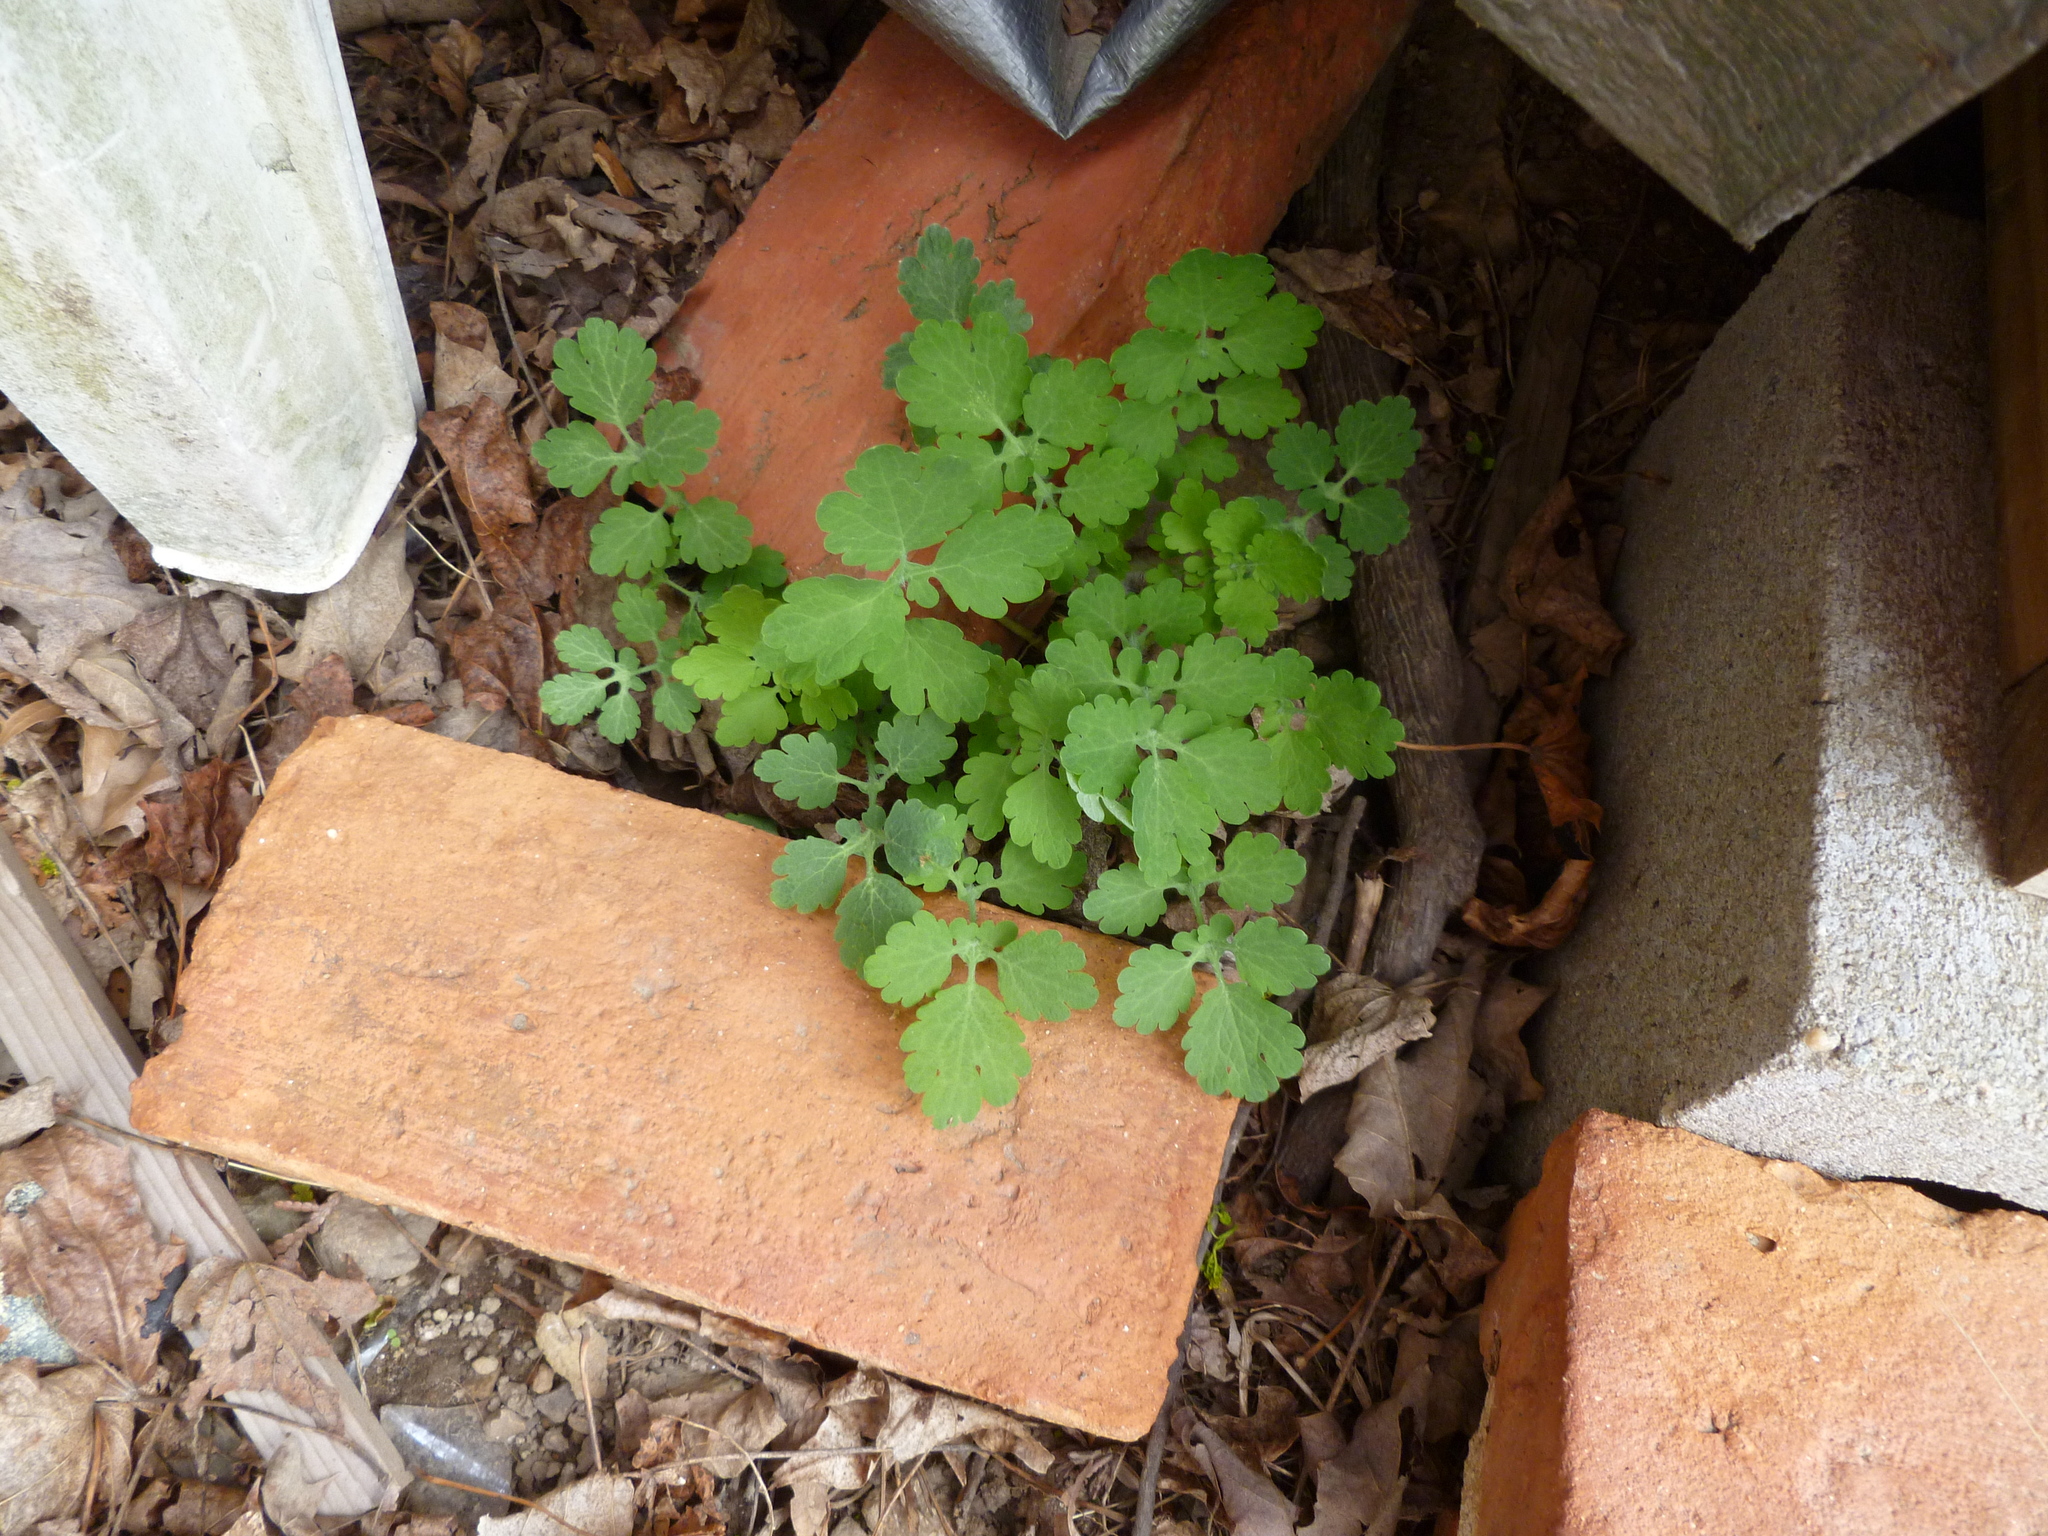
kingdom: Plantae
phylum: Tracheophyta
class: Magnoliopsida
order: Ranunculales
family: Papaveraceae
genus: Chelidonium
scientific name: Chelidonium majus
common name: Greater celandine
